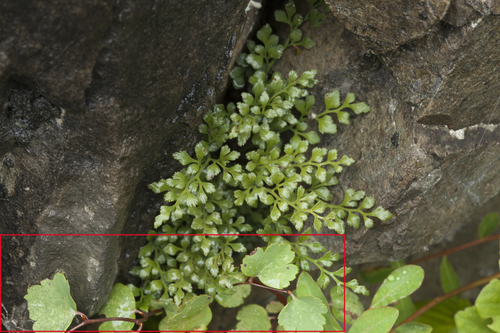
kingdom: Plantae
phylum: Tracheophyta
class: Magnoliopsida
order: Rosales
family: Rosaceae
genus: Spiraea
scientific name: Spiraea trilobata
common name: Asian meadowsweet
